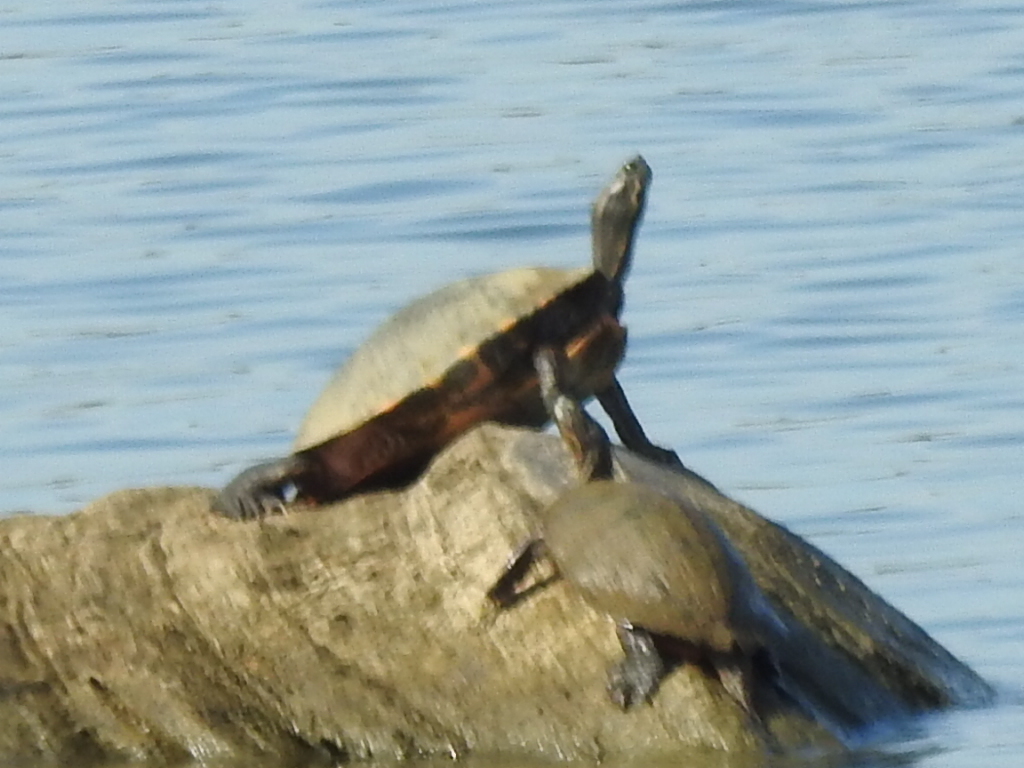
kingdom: Animalia
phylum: Chordata
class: Testudines
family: Emydidae
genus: Pseudemys
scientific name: Pseudemys concinna
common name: Eastern river cooter
